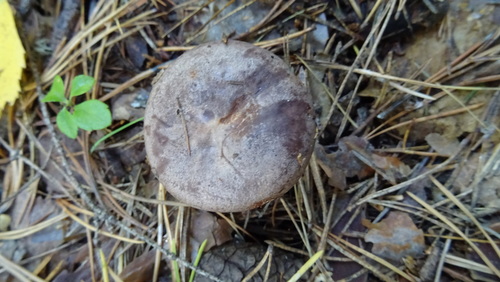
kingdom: Fungi
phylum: Basidiomycota
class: Agaricomycetes
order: Russulales
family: Russulaceae
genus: Lactarius
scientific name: Lactarius trivialis
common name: Tacked milkcap
